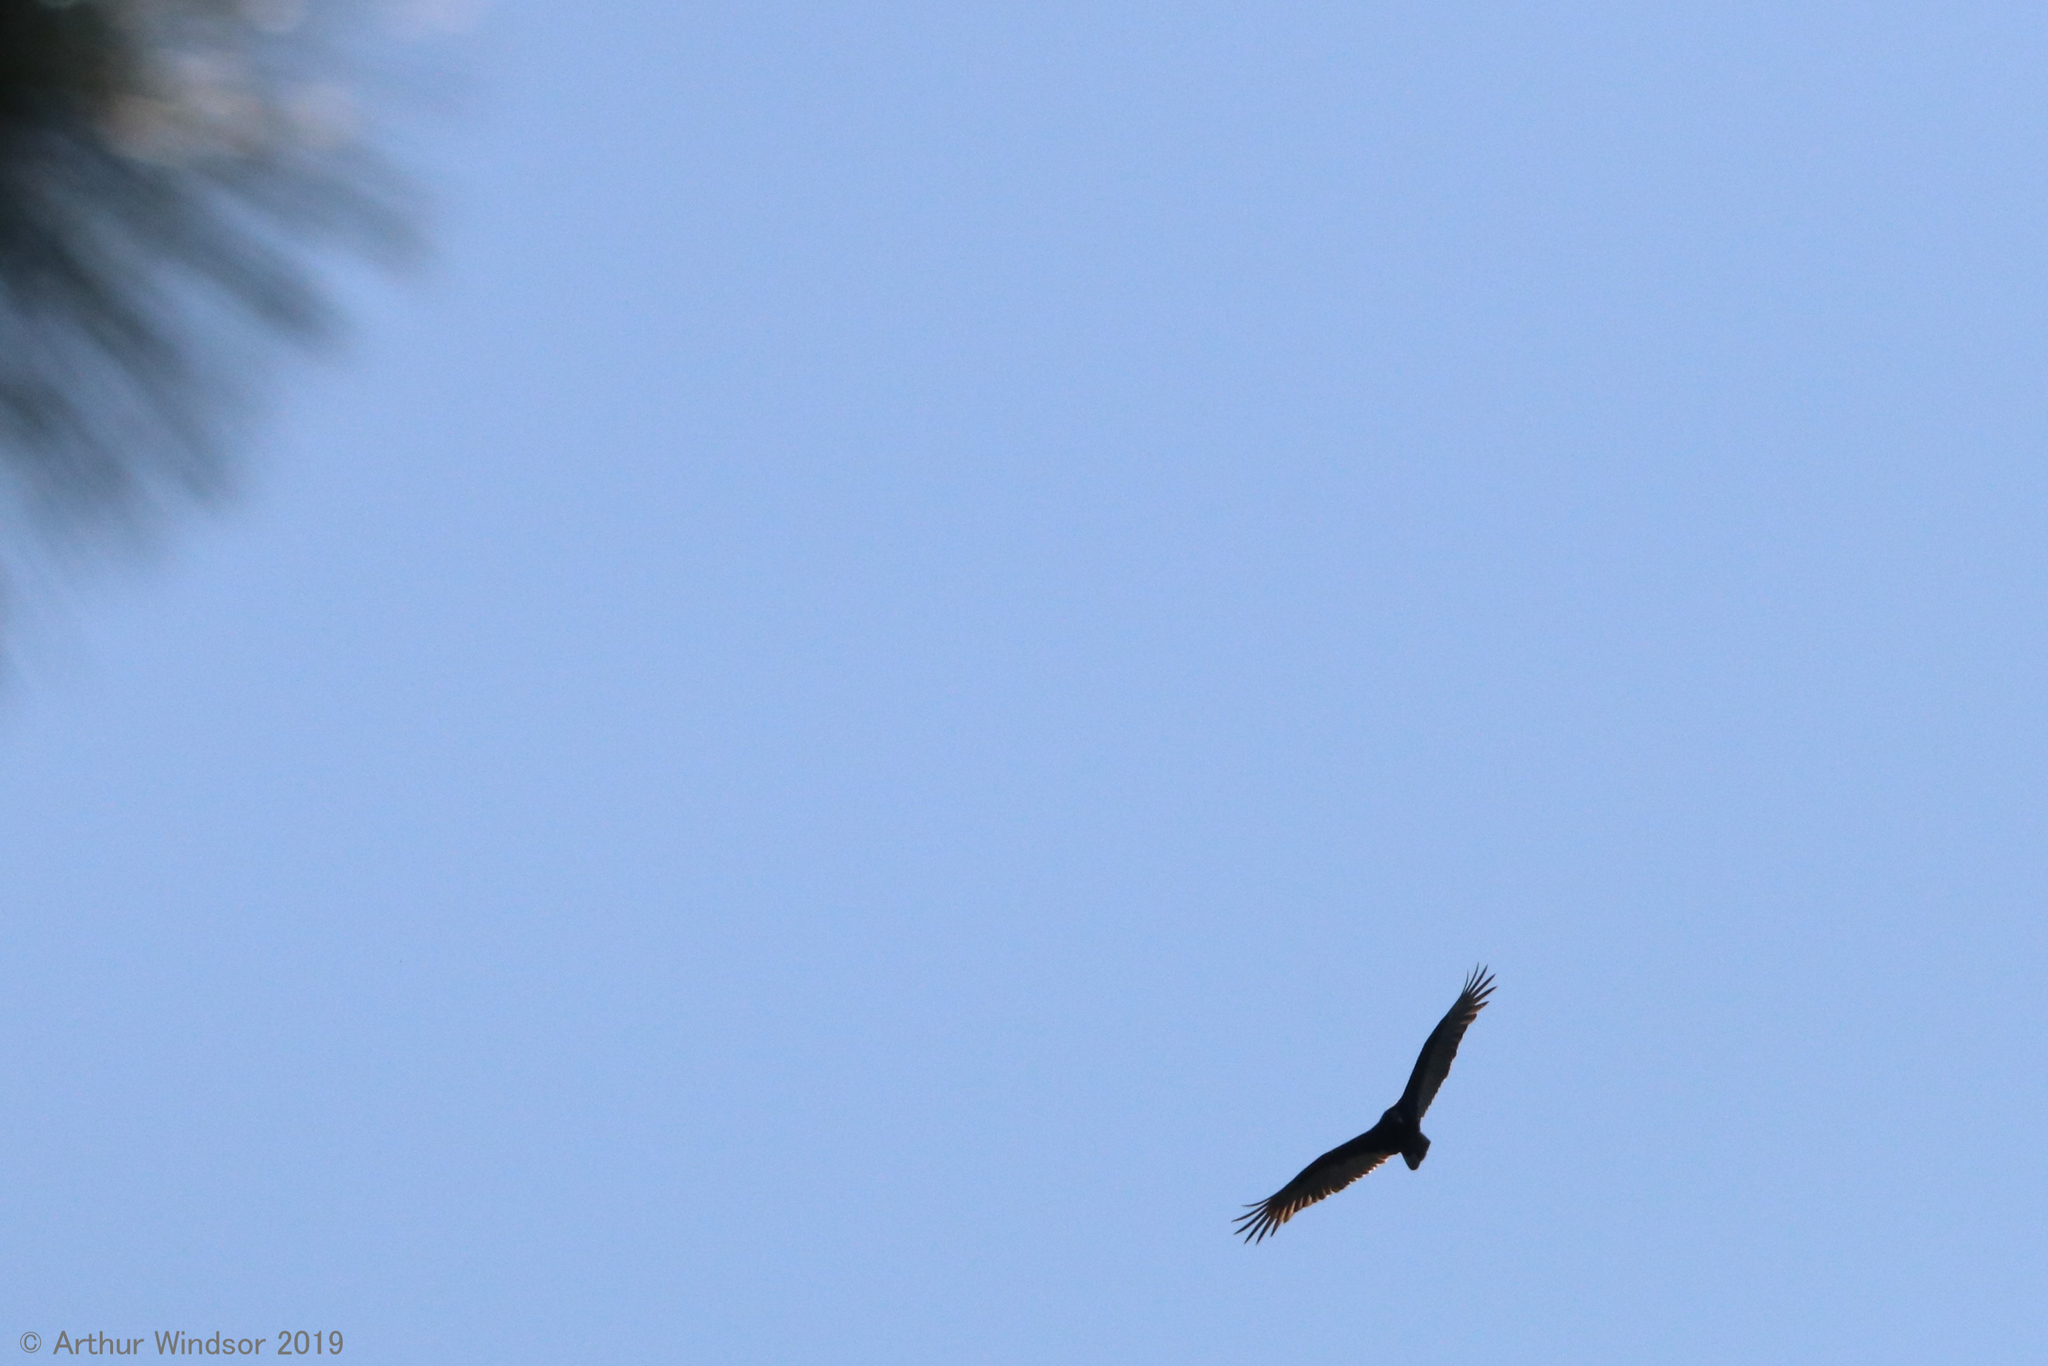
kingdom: Animalia
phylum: Chordata
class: Aves
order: Accipitriformes
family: Cathartidae
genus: Cathartes
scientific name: Cathartes aura
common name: Turkey vulture
